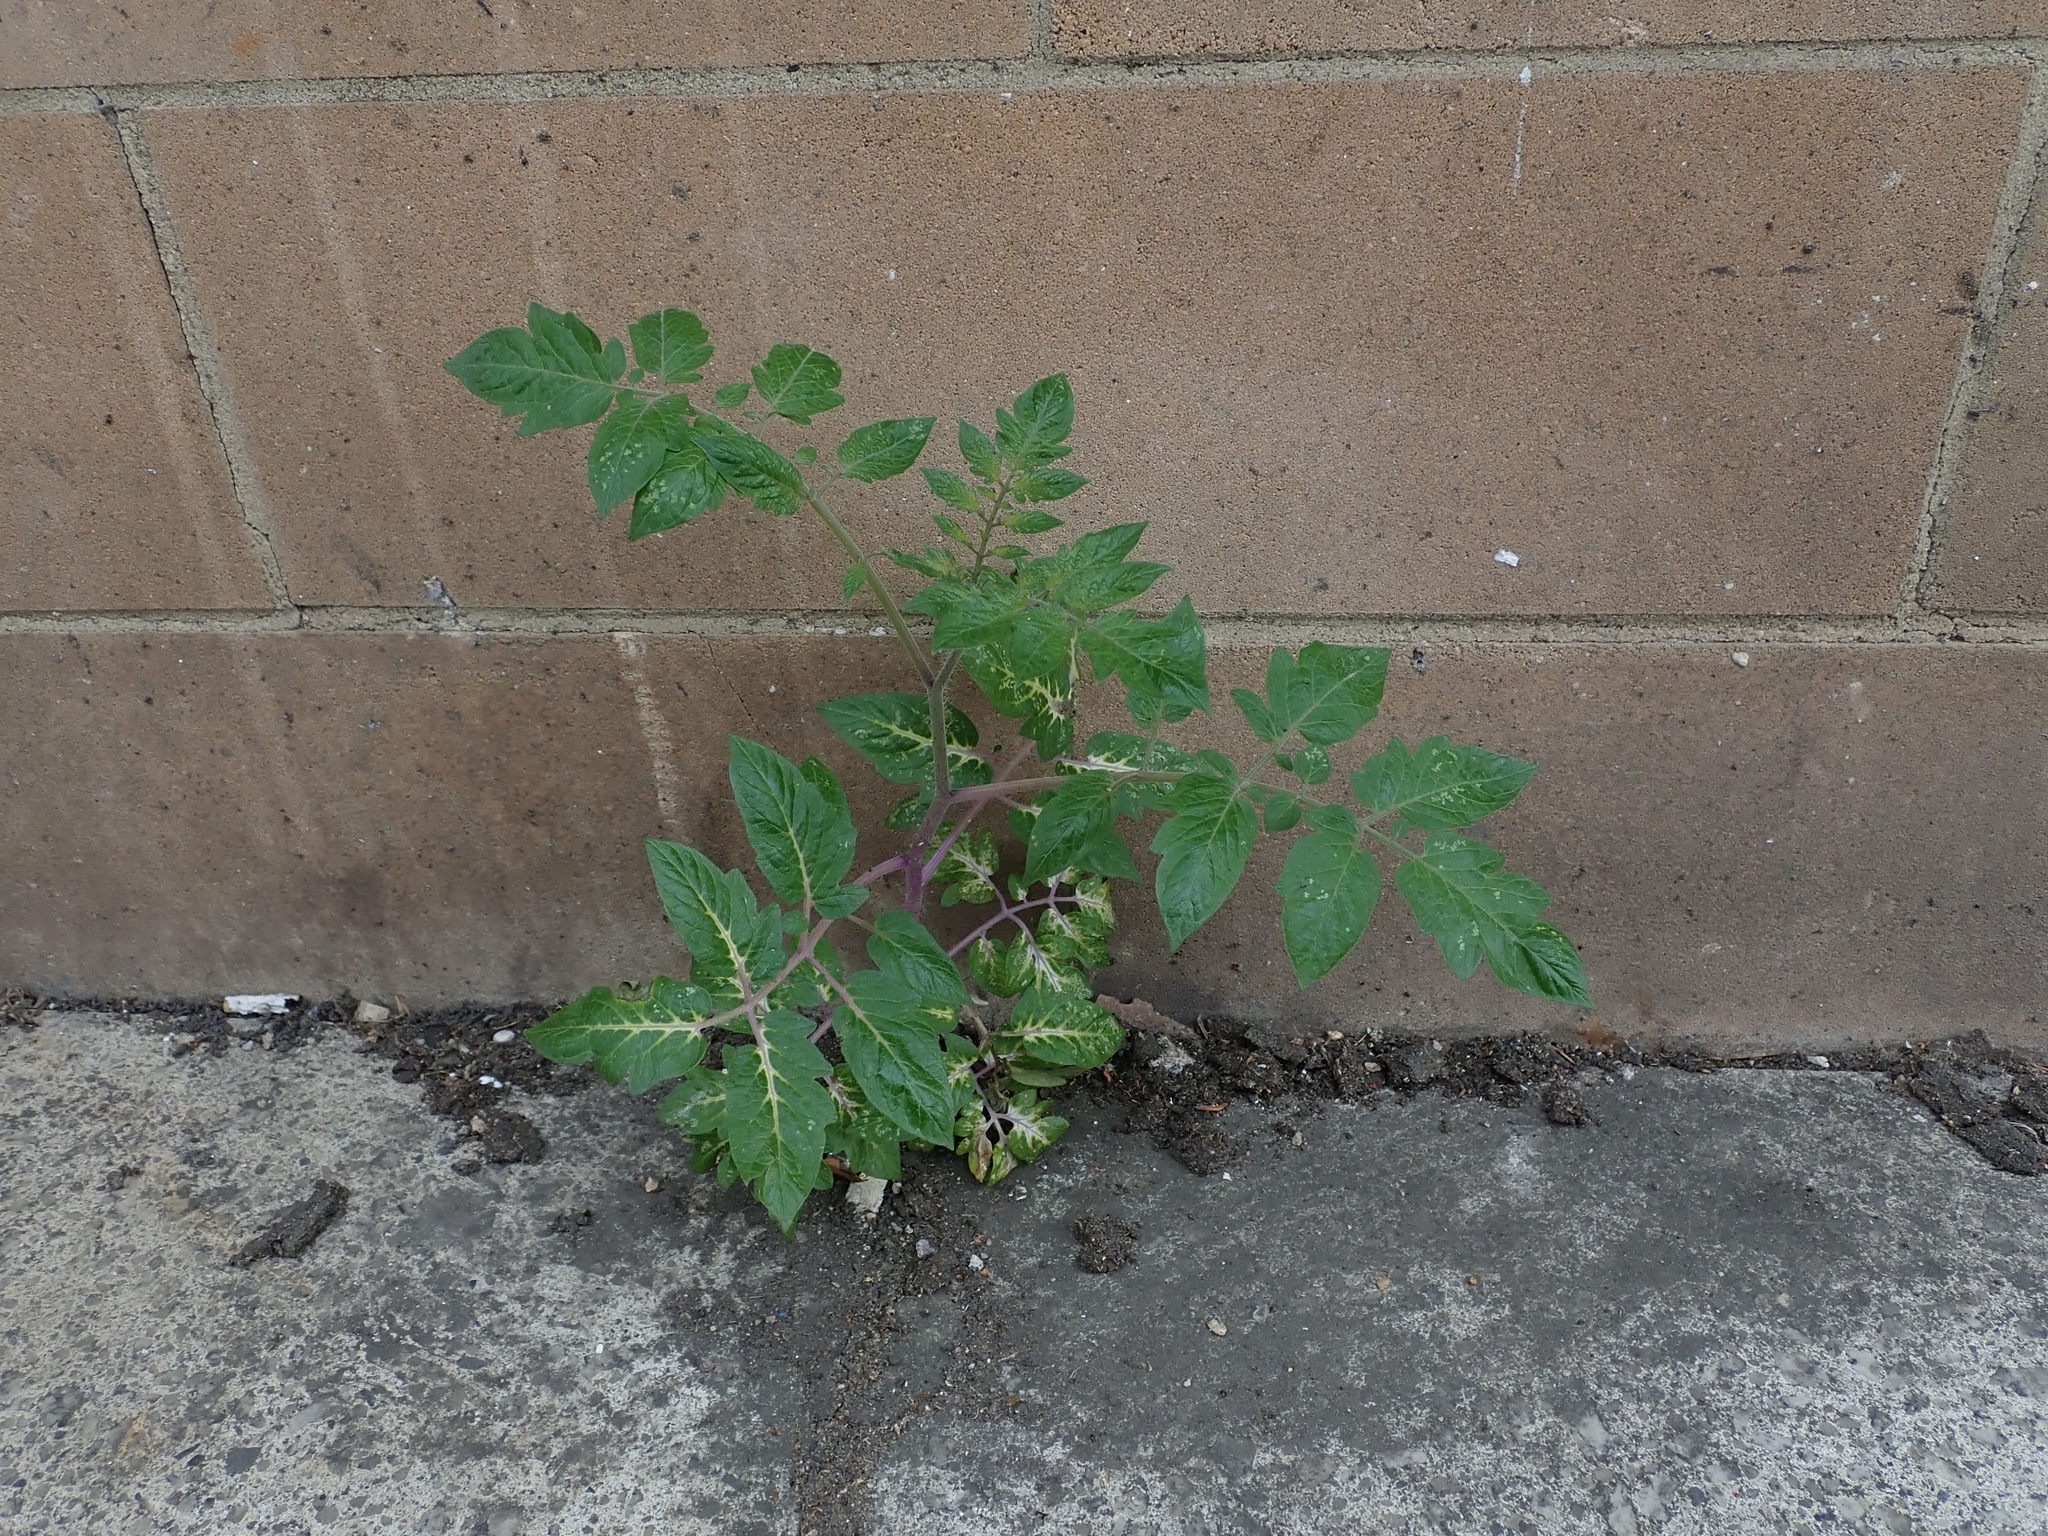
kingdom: Plantae
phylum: Tracheophyta
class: Magnoliopsida
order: Solanales
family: Solanaceae
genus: Solanum
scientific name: Solanum lycopersicum
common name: Garden tomato
